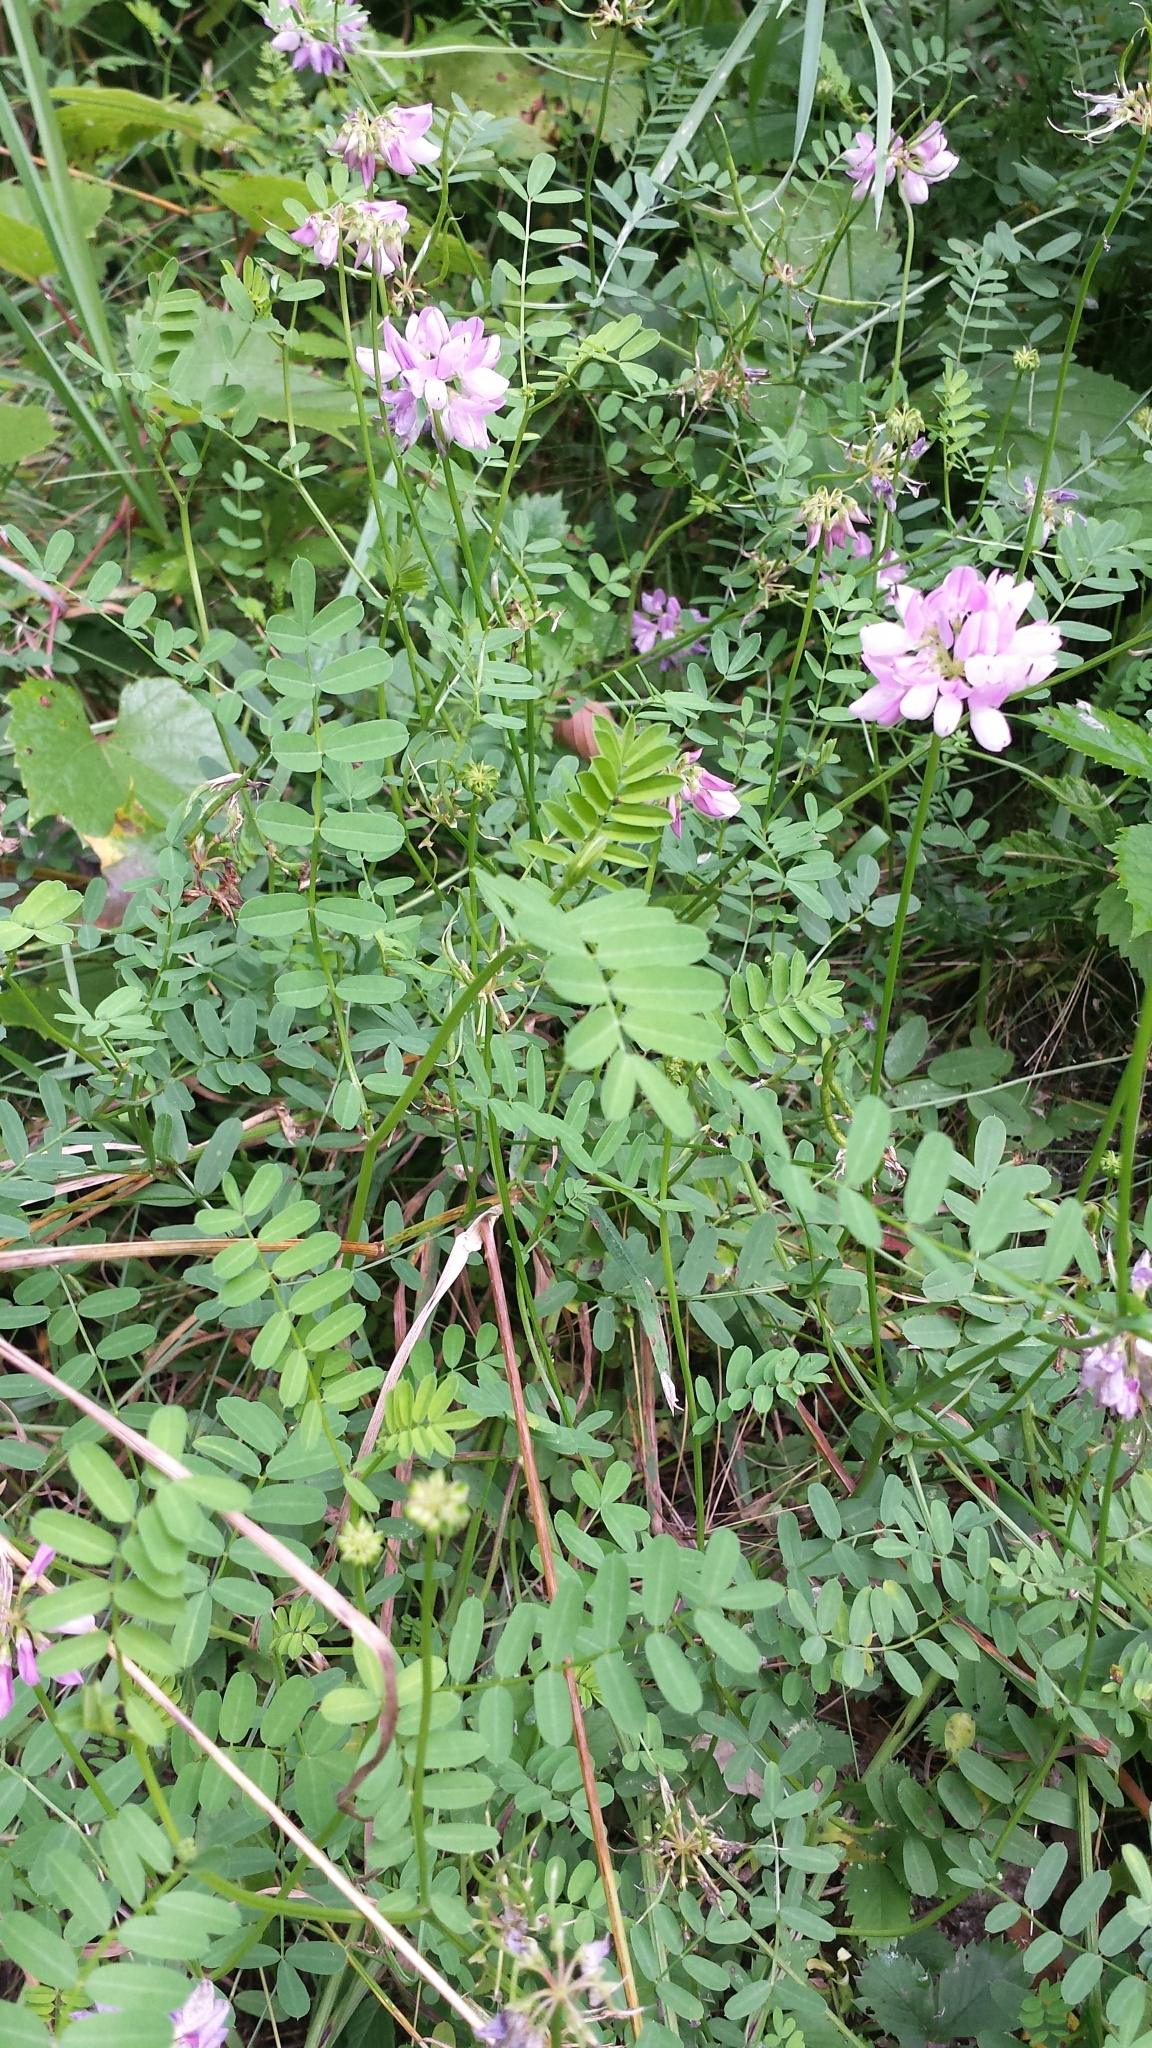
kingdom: Plantae
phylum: Tracheophyta
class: Magnoliopsida
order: Fabales
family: Fabaceae
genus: Coronilla
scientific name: Coronilla varia
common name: Crownvetch
